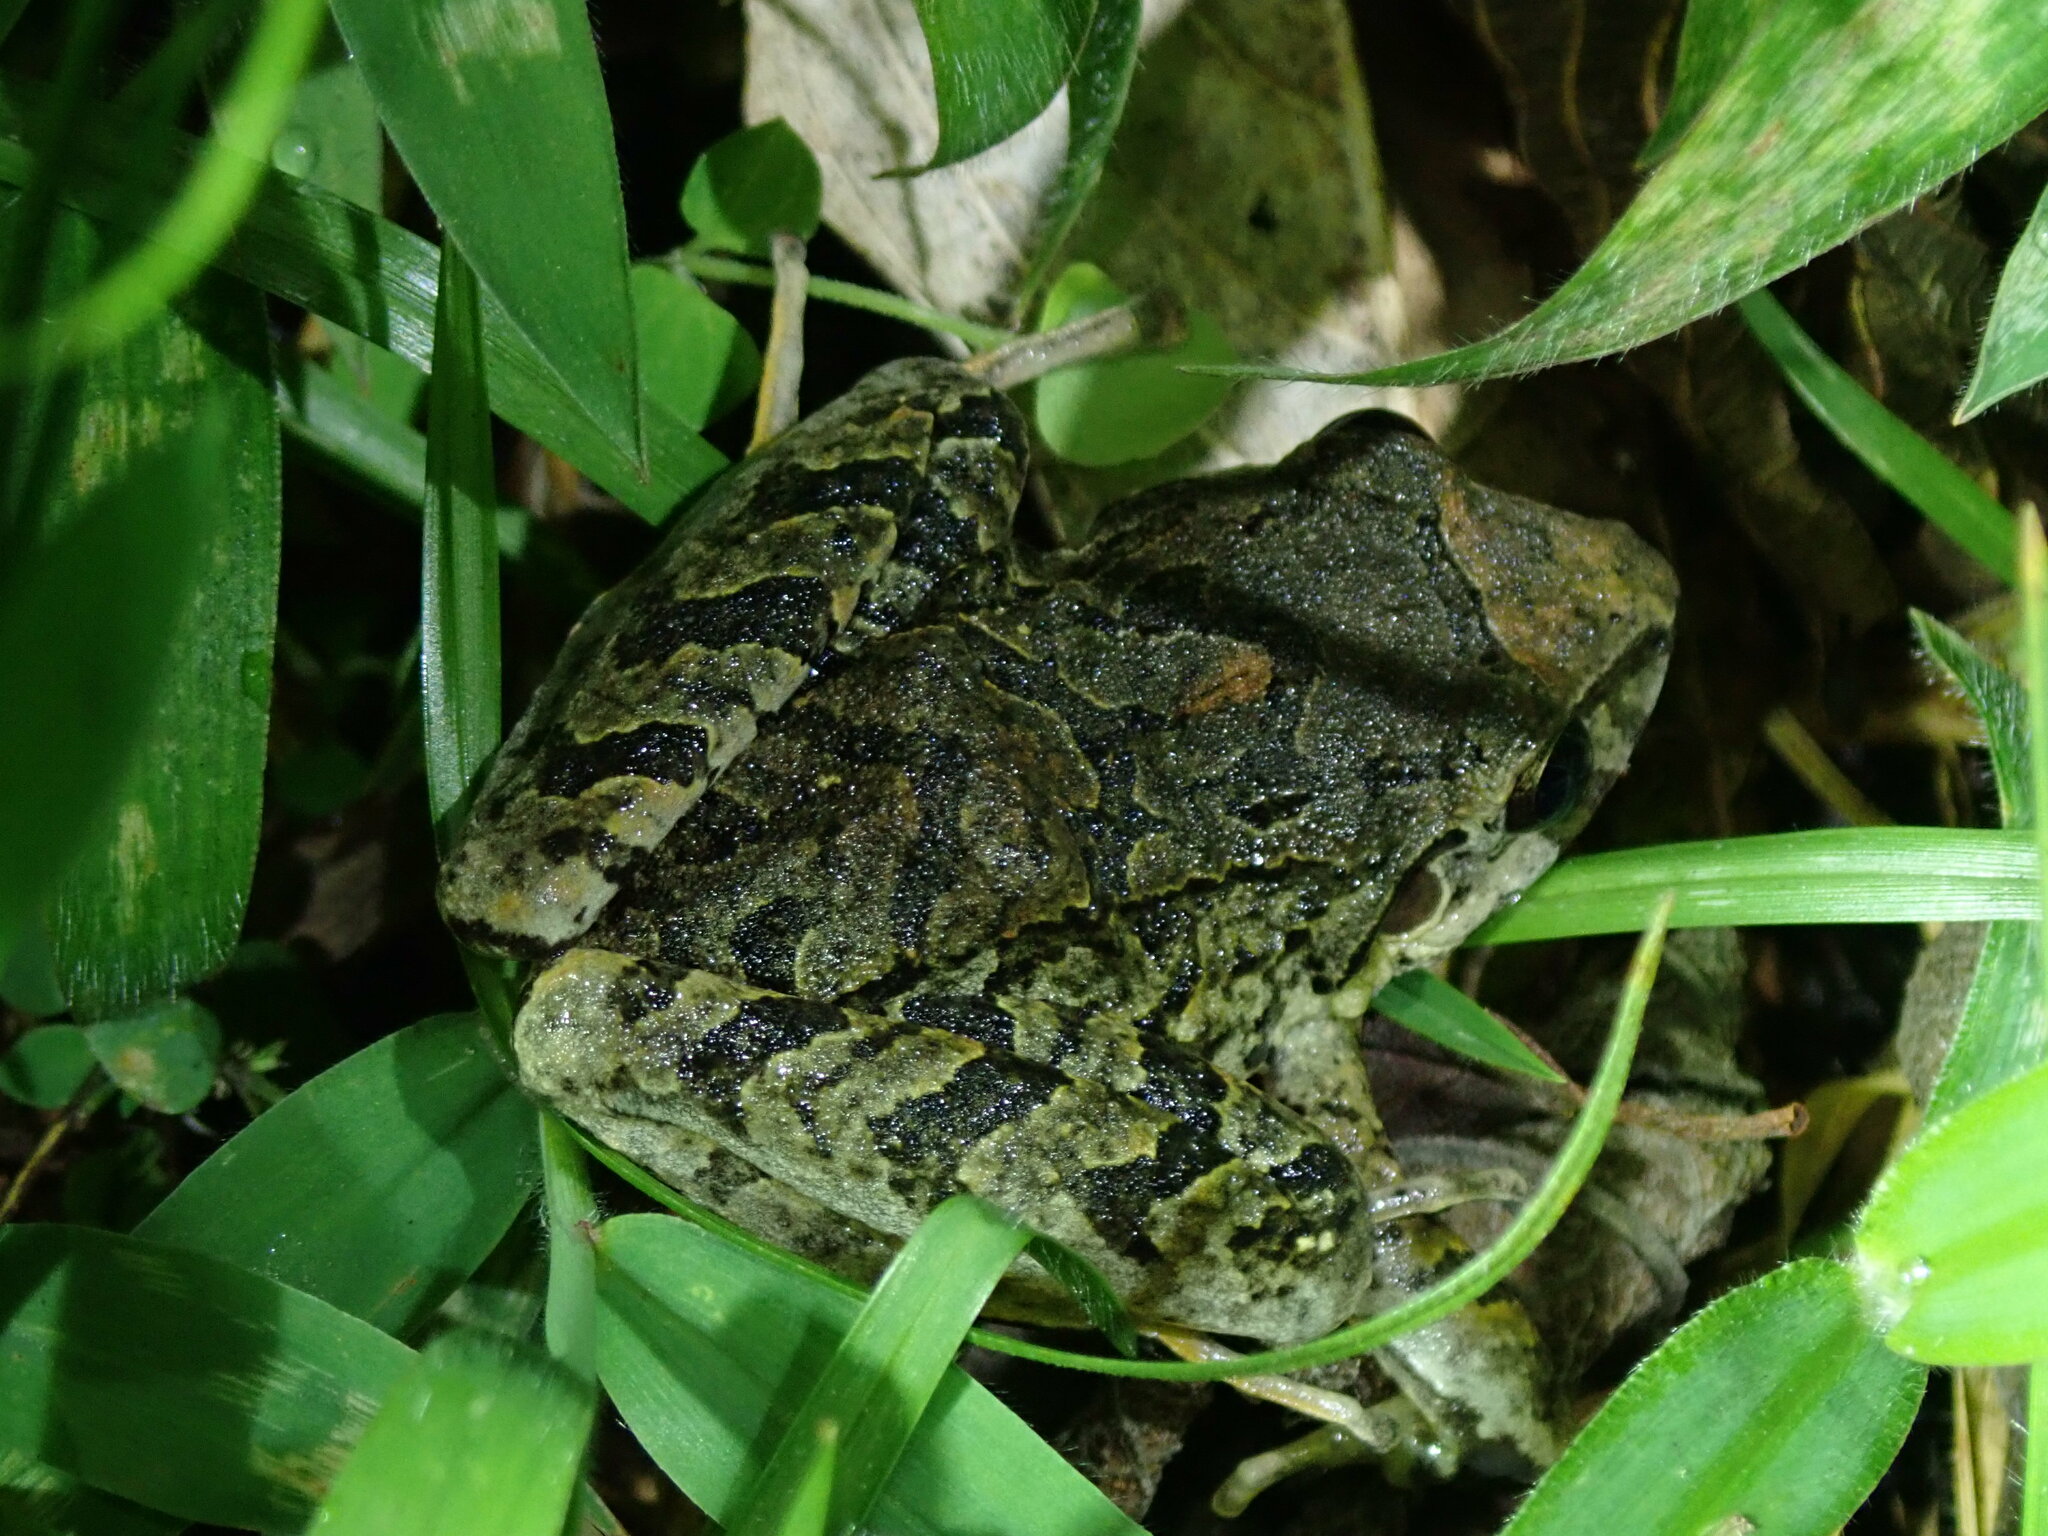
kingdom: Animalia
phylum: Chordata
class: Amphibia
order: Anura
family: Craugastoridae
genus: Pristimantis
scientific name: Pristimantis lymani
